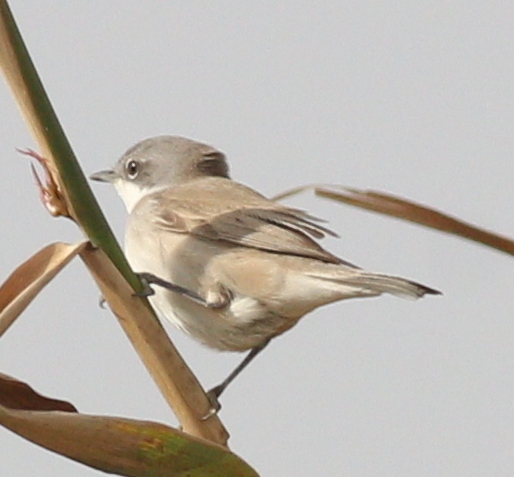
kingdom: Animalia
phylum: Chordata
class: Aves
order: Passeriformes
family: Sylviidae
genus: Sylvia
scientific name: Sylvia curruca
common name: Lesser whitethroat
